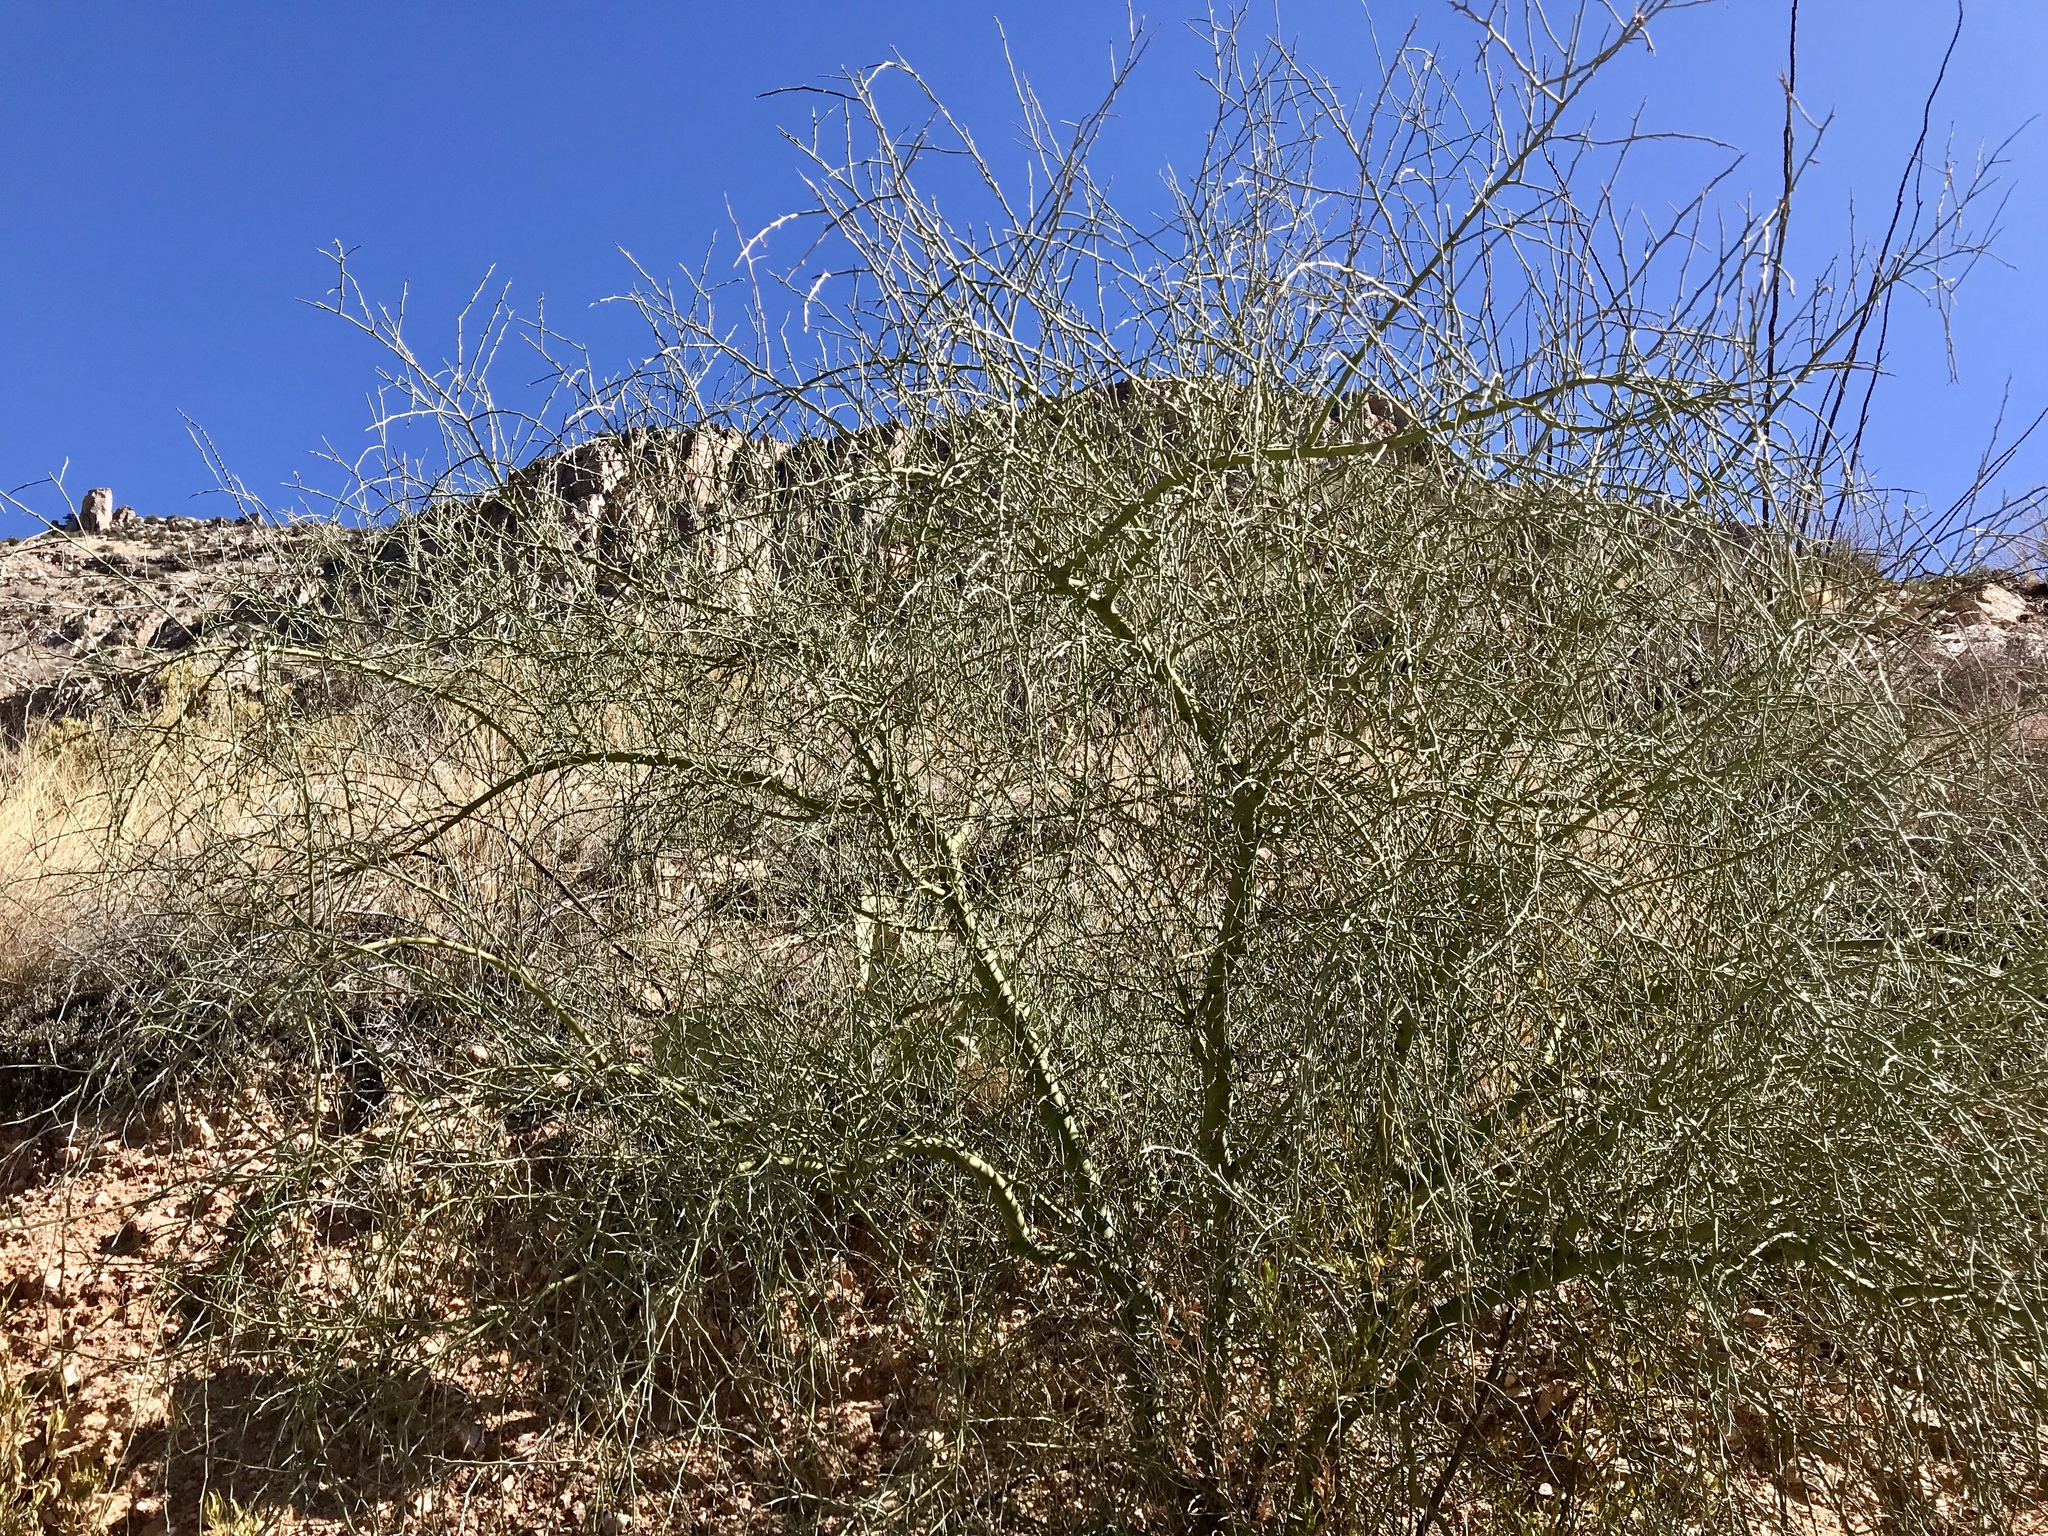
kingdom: Plantae
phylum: Tracheophyta
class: Magnoliopsida
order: Fabales
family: Fabaceae
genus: Parkinsonia
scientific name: Parkinsonia florida
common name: Blue paloverde
